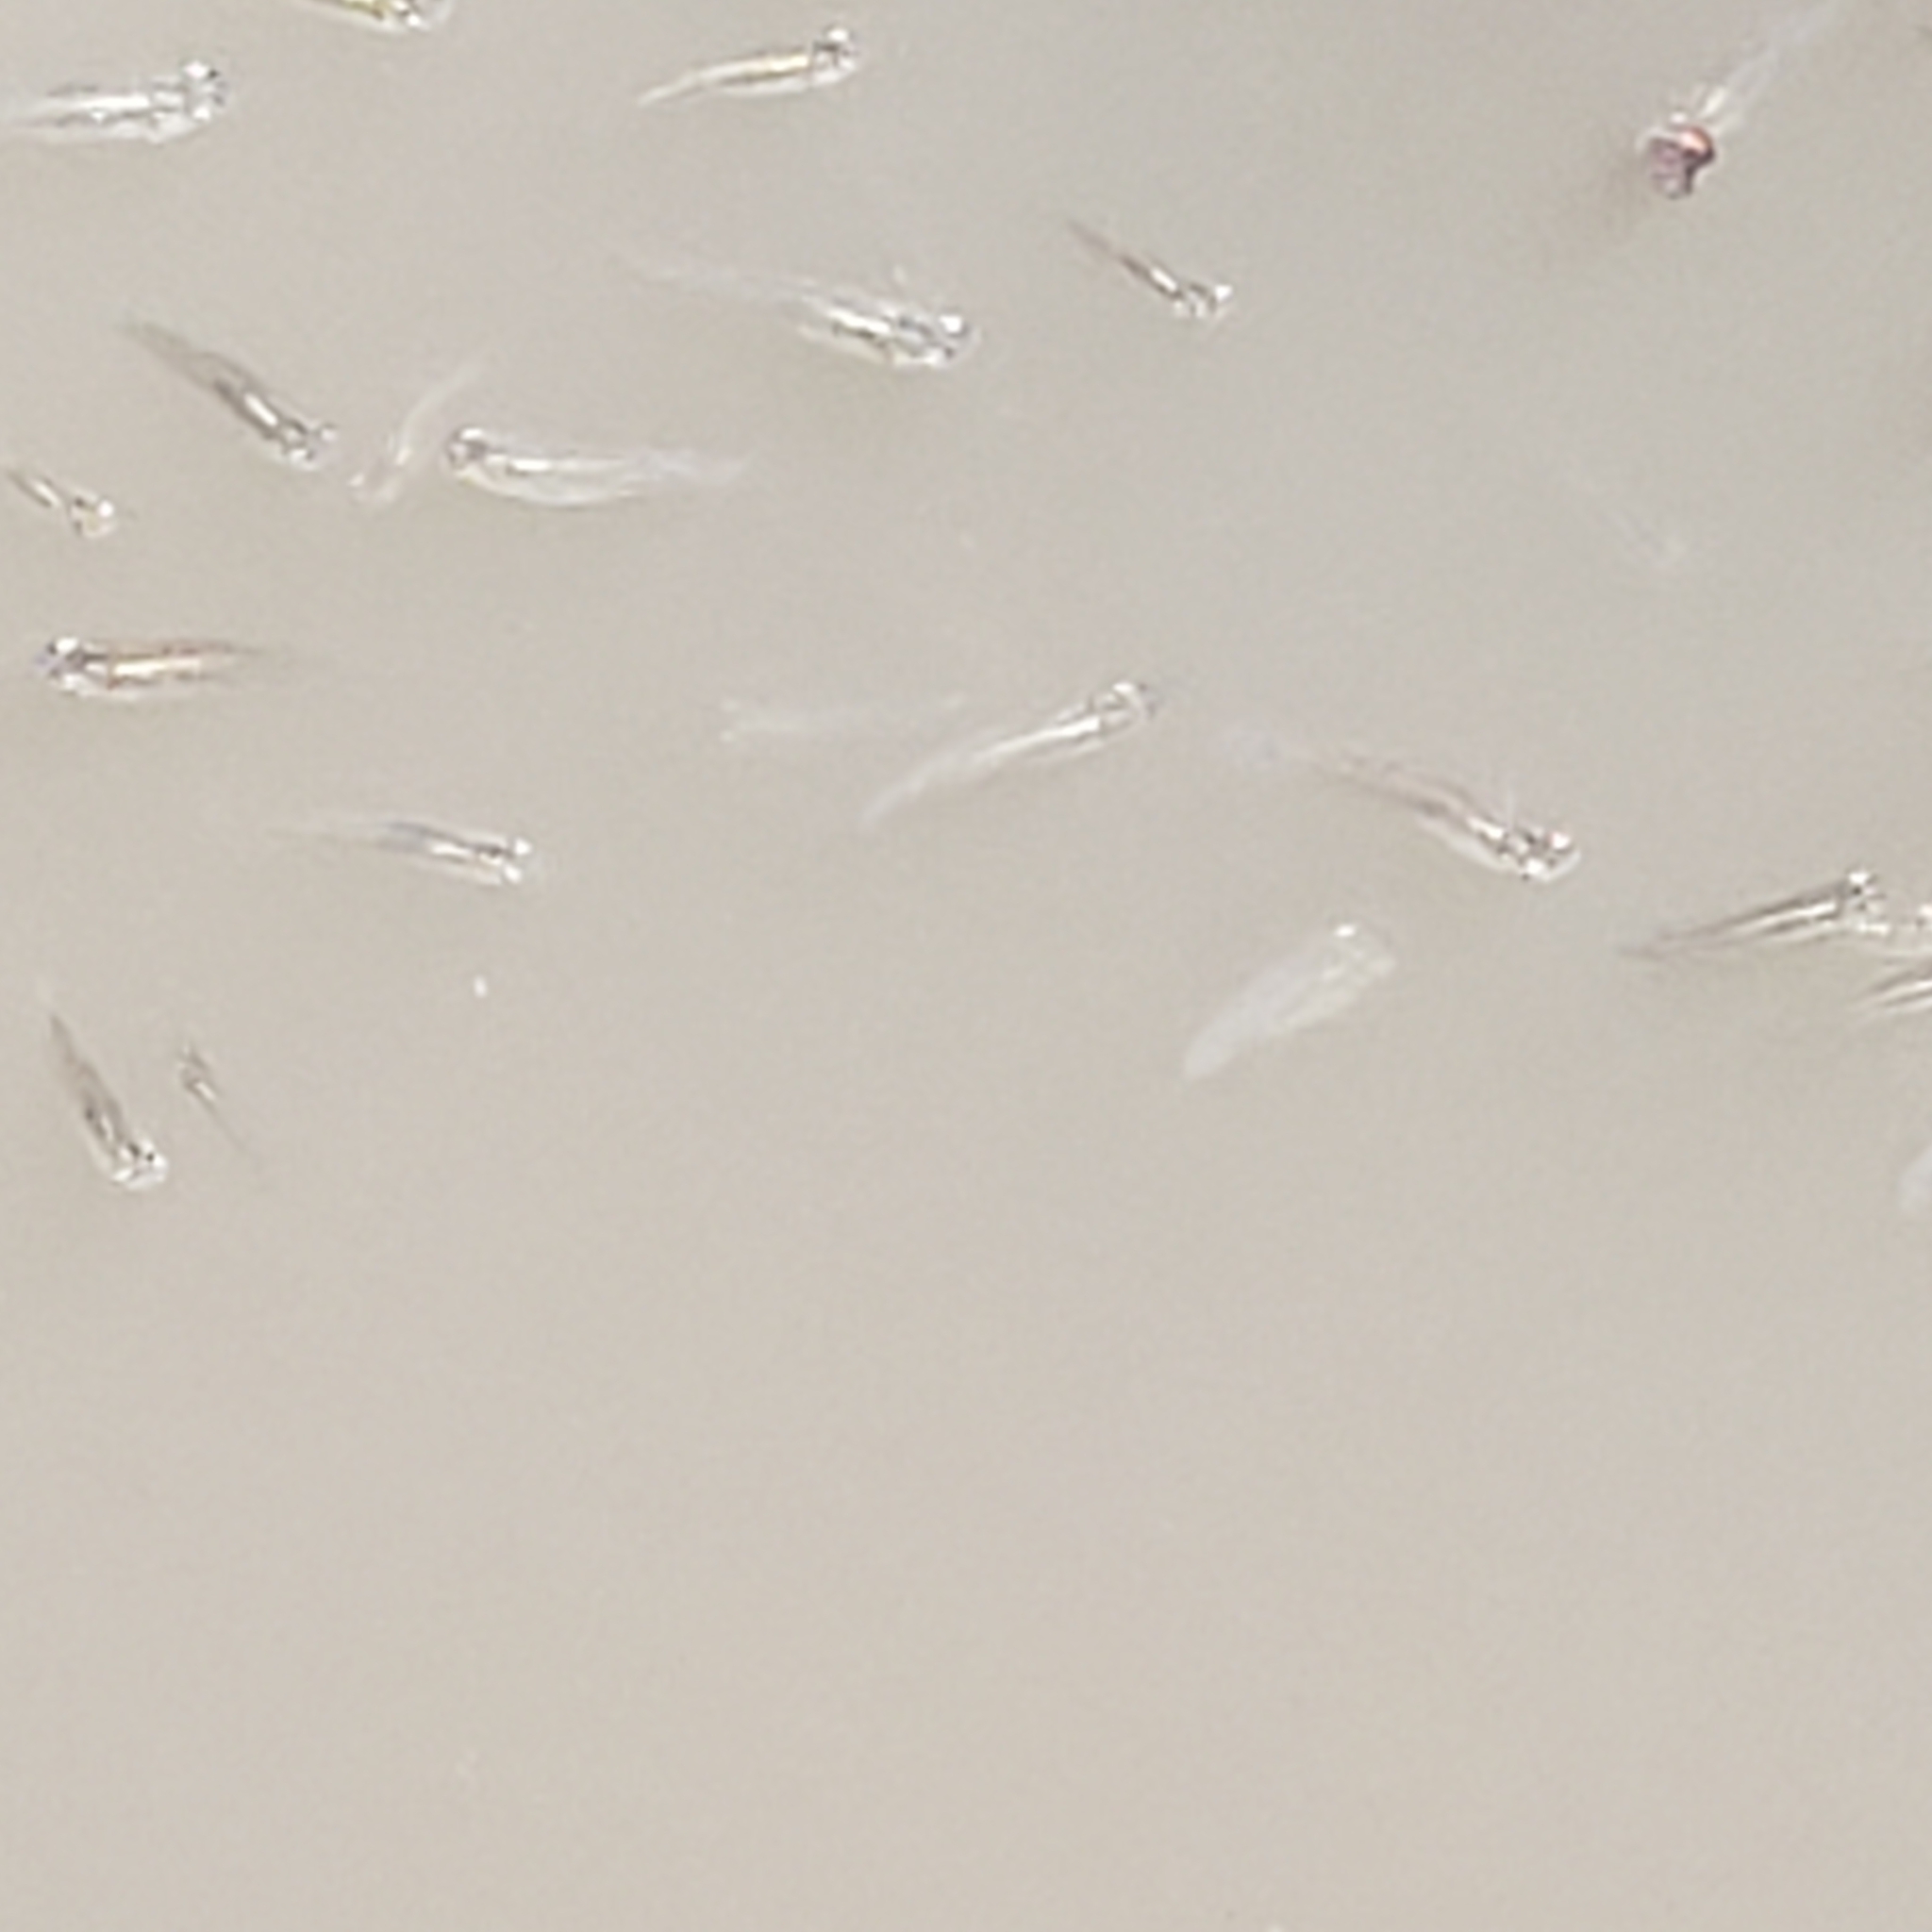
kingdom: Animalia
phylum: Chordata
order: Cyprinodontiformes
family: Poeciliidae
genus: Gambusia
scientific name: Gambusia affinis
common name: Mosquitofish
